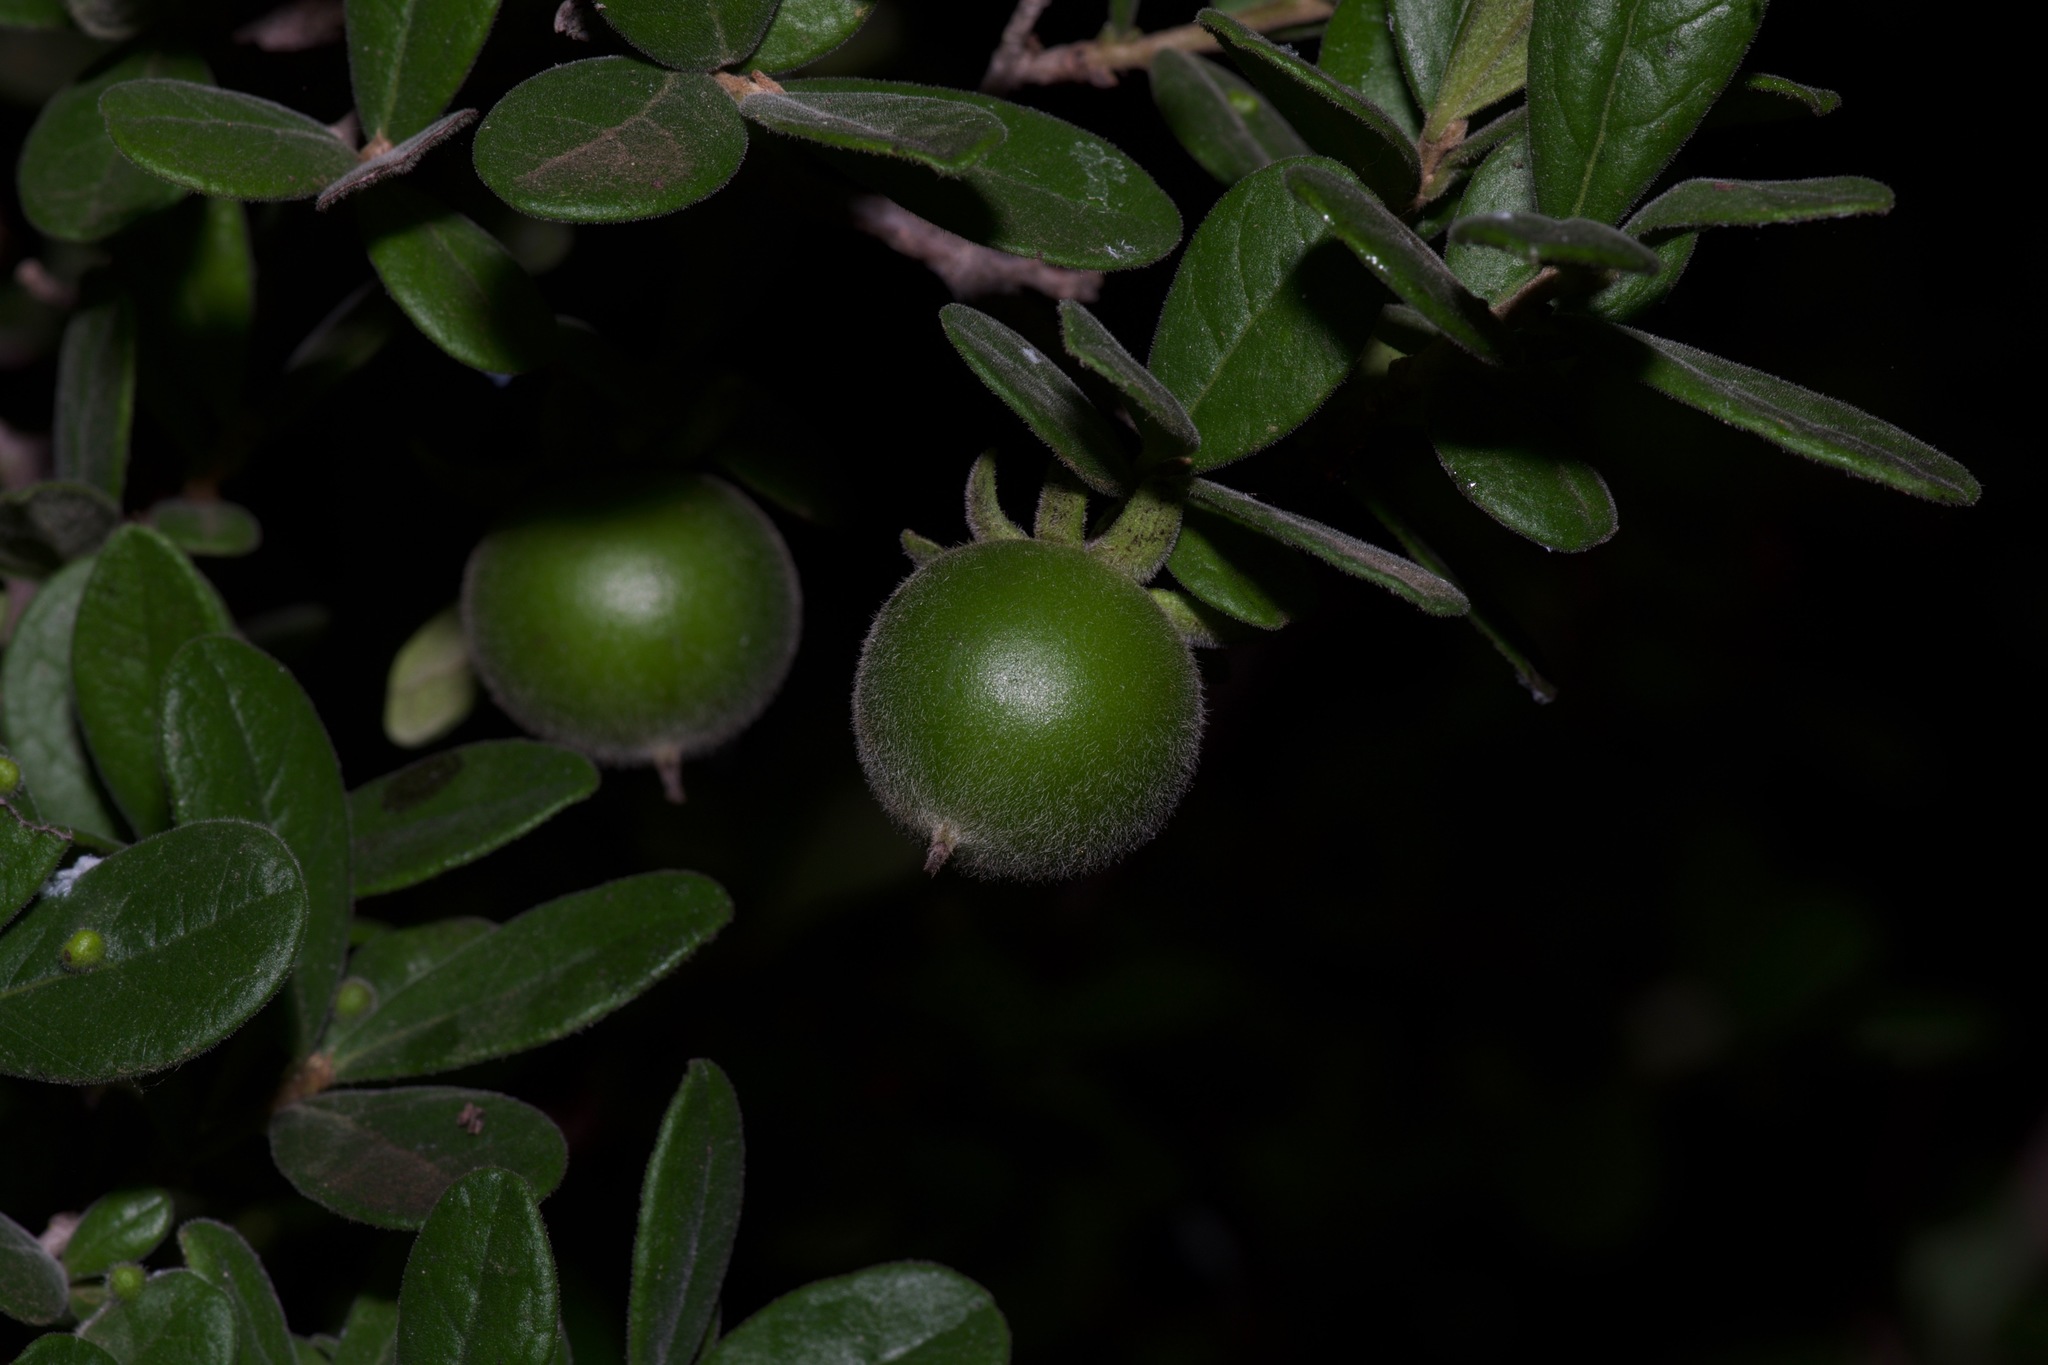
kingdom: Plantae
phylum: Tracheophyta
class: Magnoliopsida
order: Ericales
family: Ebenaceae
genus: Diospyros
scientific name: Diospyros texana
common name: Texas persimmon
